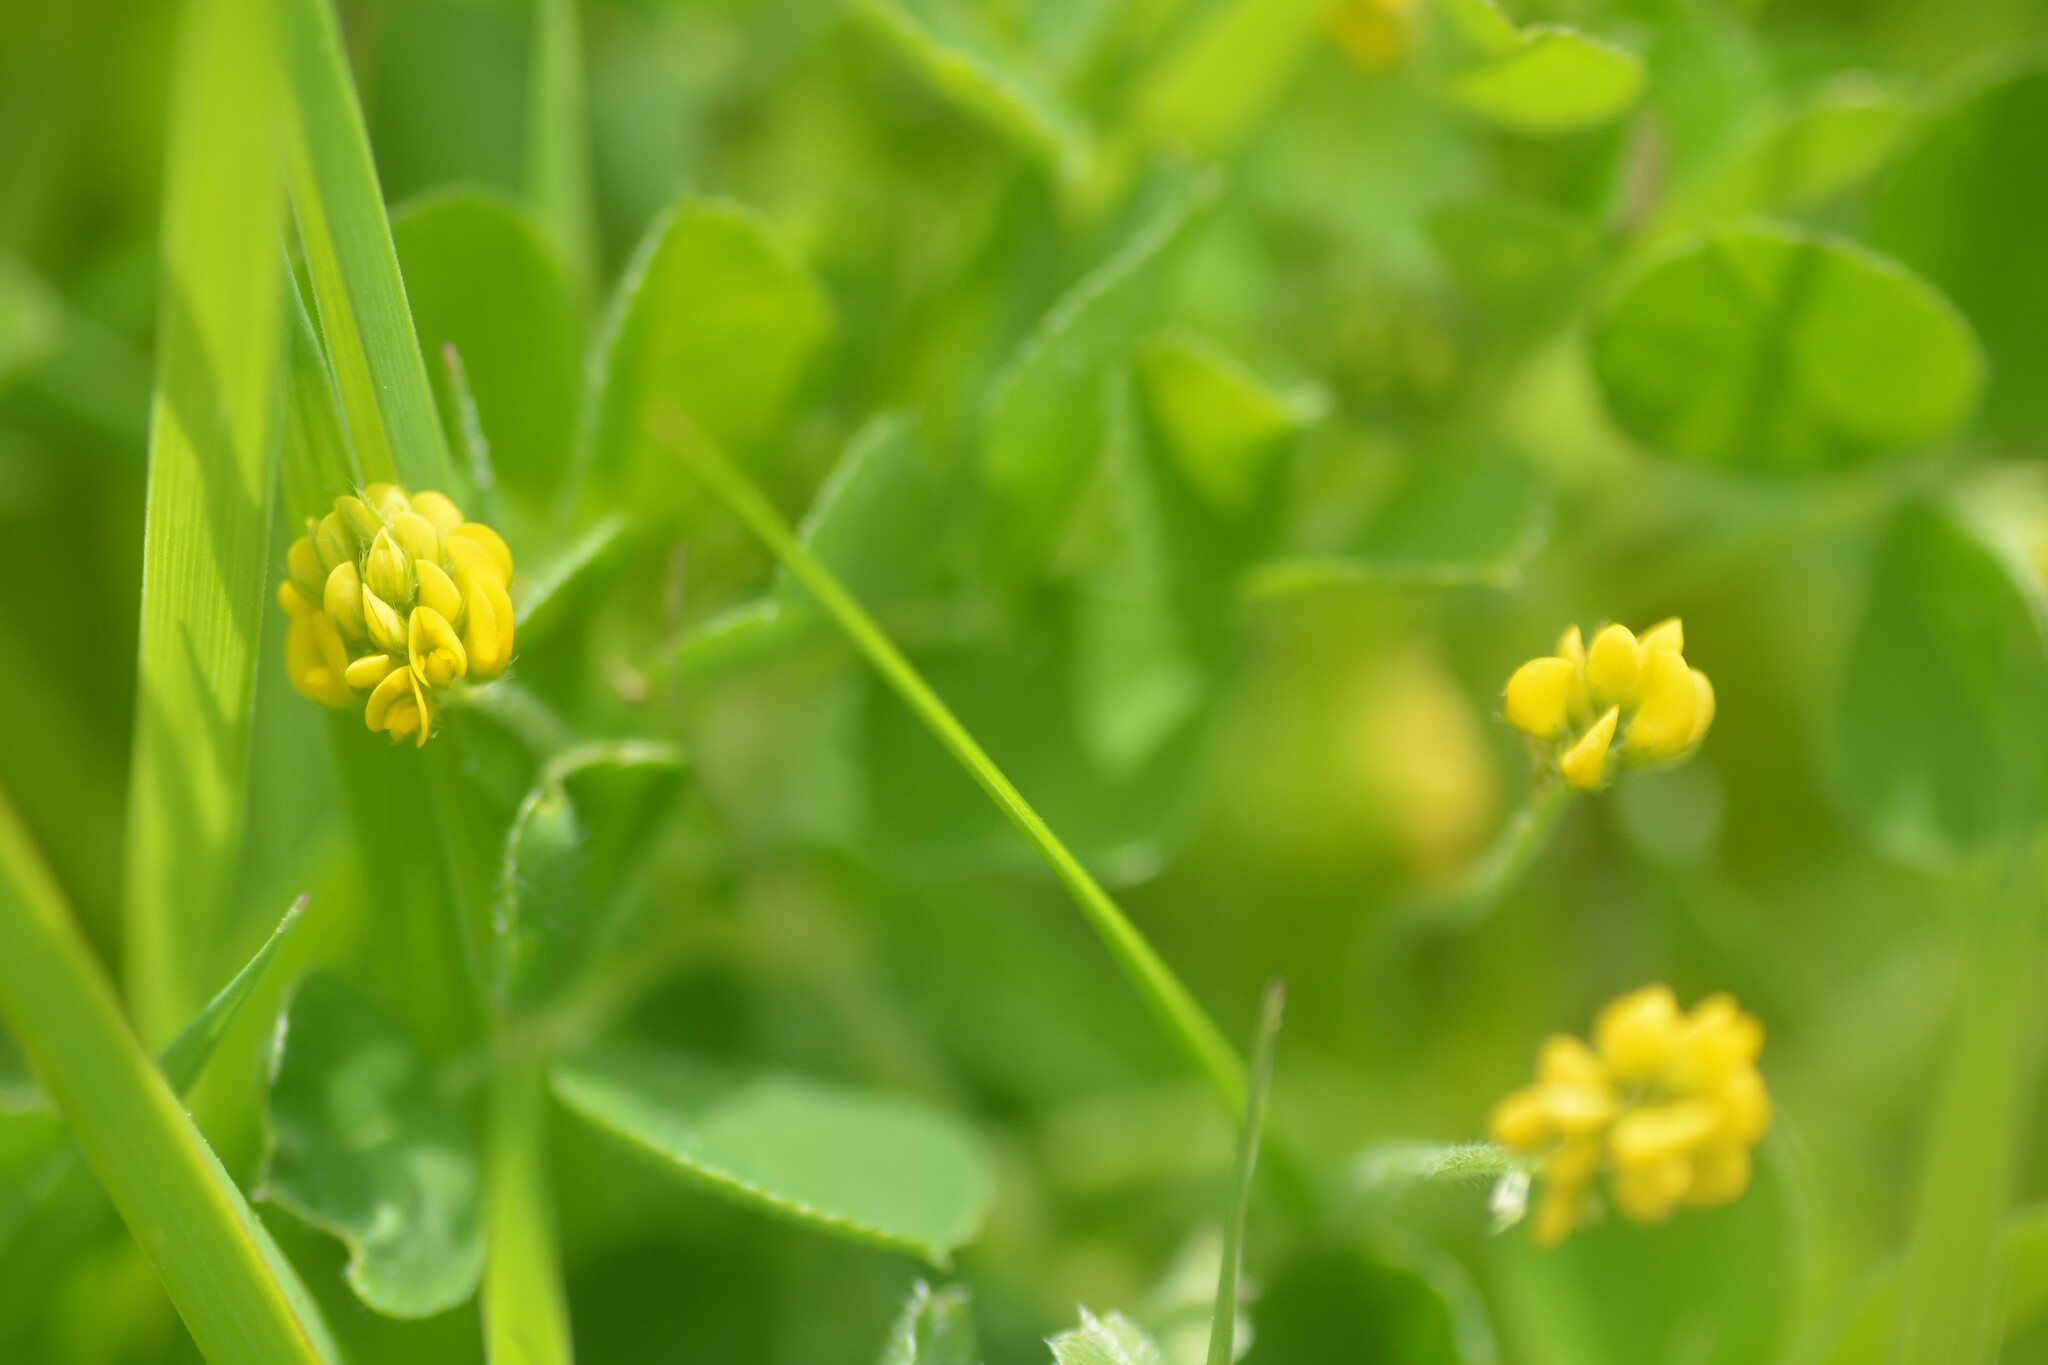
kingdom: Plantae
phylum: Tracheophyta
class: Magnoliopsida
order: Fabales
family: Fabaceae
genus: Medicago
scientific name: Medicago lupulina
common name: Black medick
